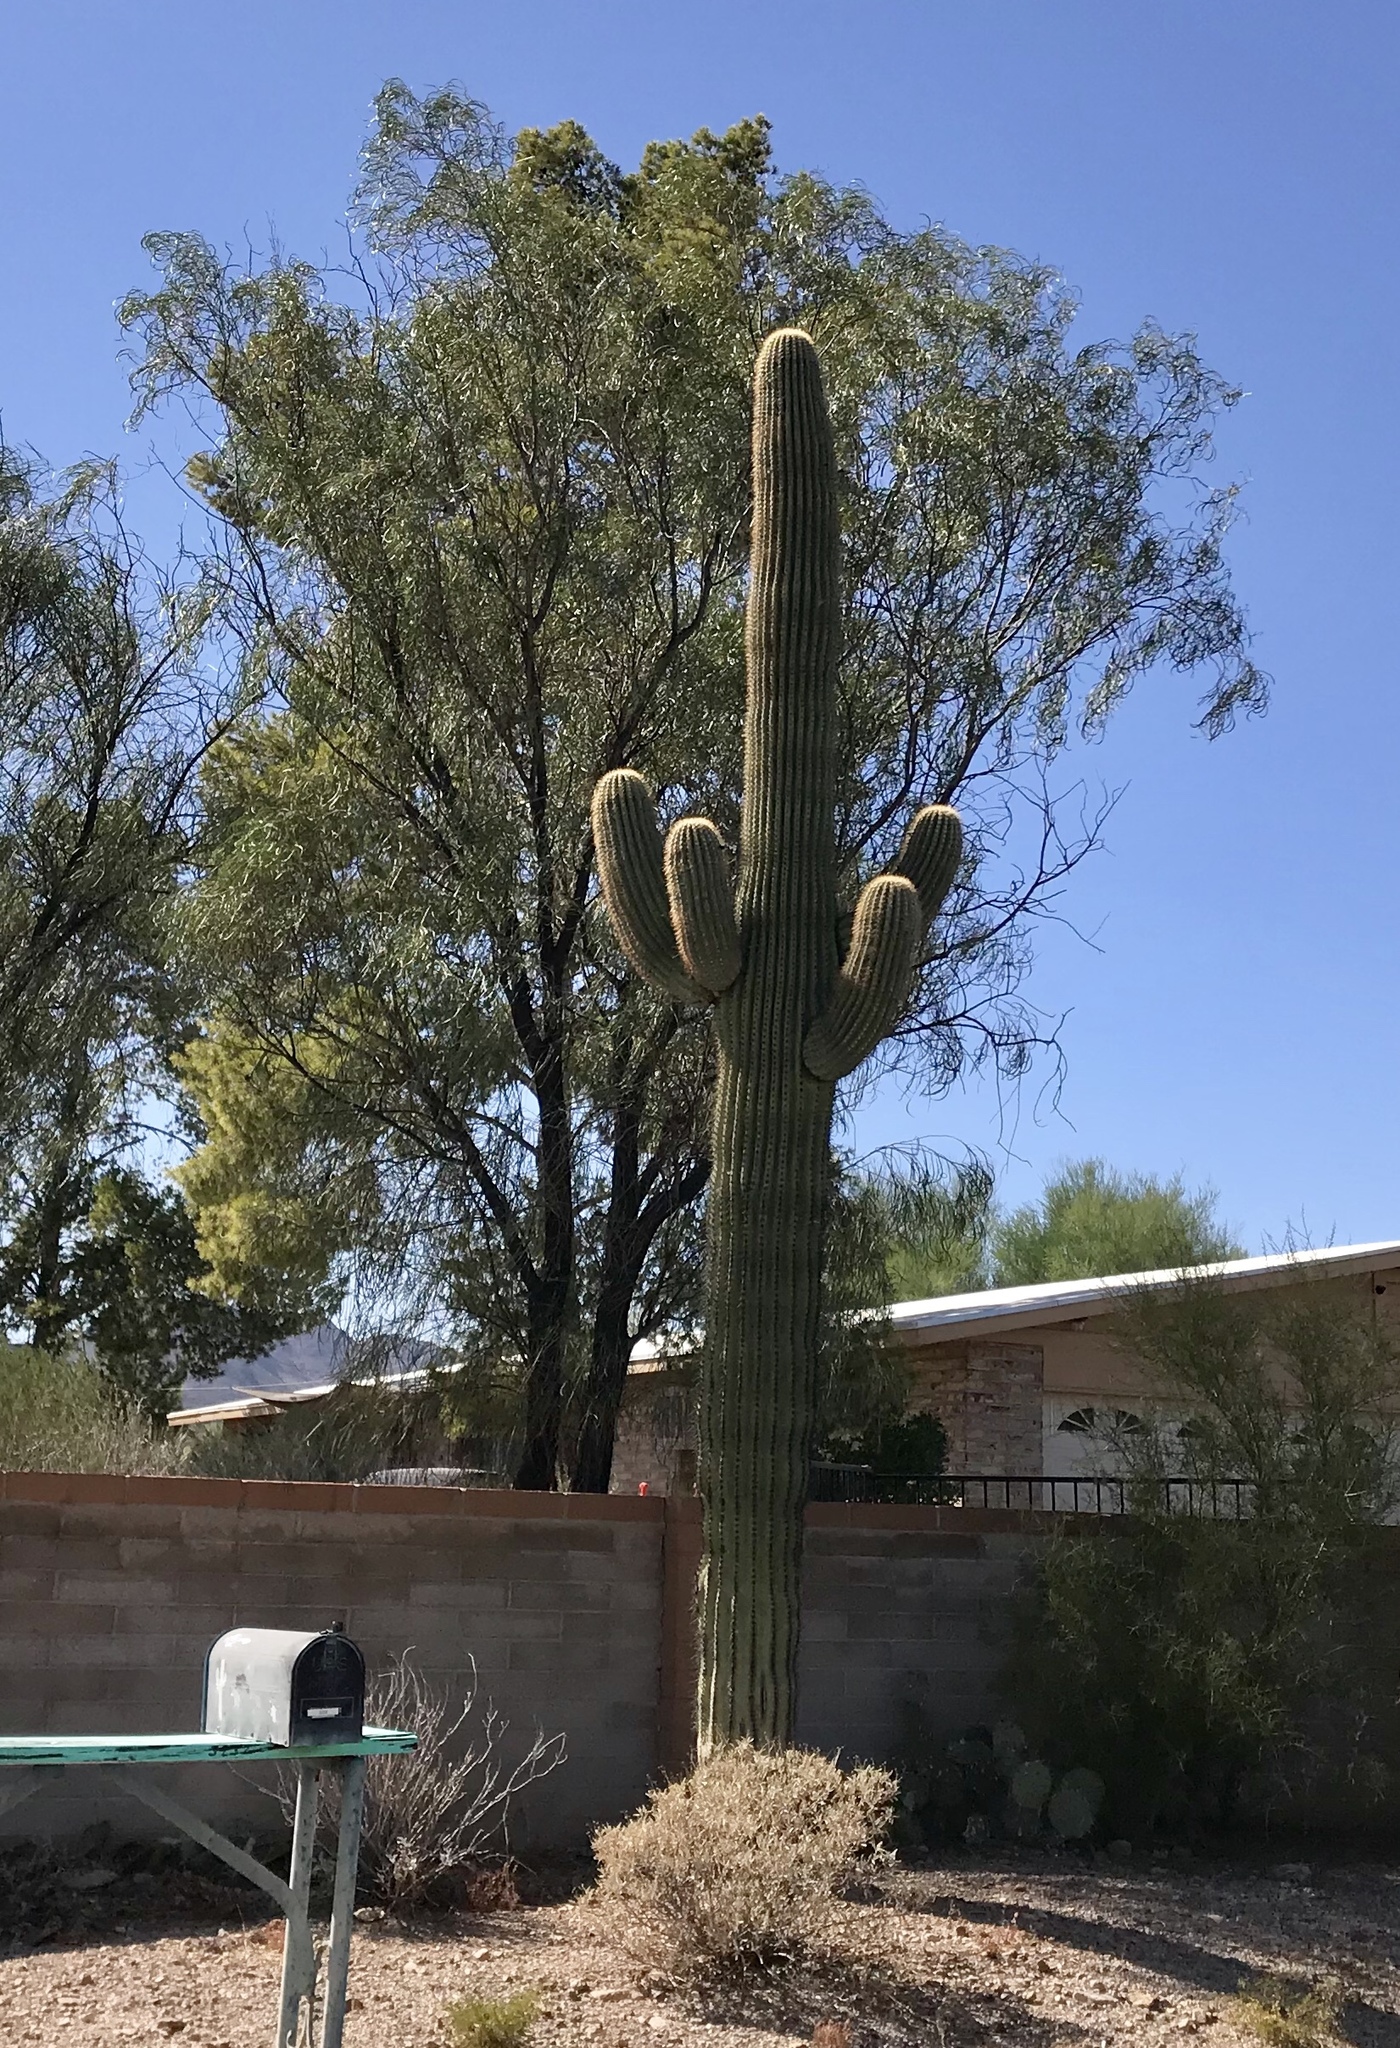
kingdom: Plantae
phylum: Tracheophyta
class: Magnoliopsida
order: Caryophyllales
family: Cactaceae
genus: Carnegiea
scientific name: Carnegiea gigantea
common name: Saguaro
